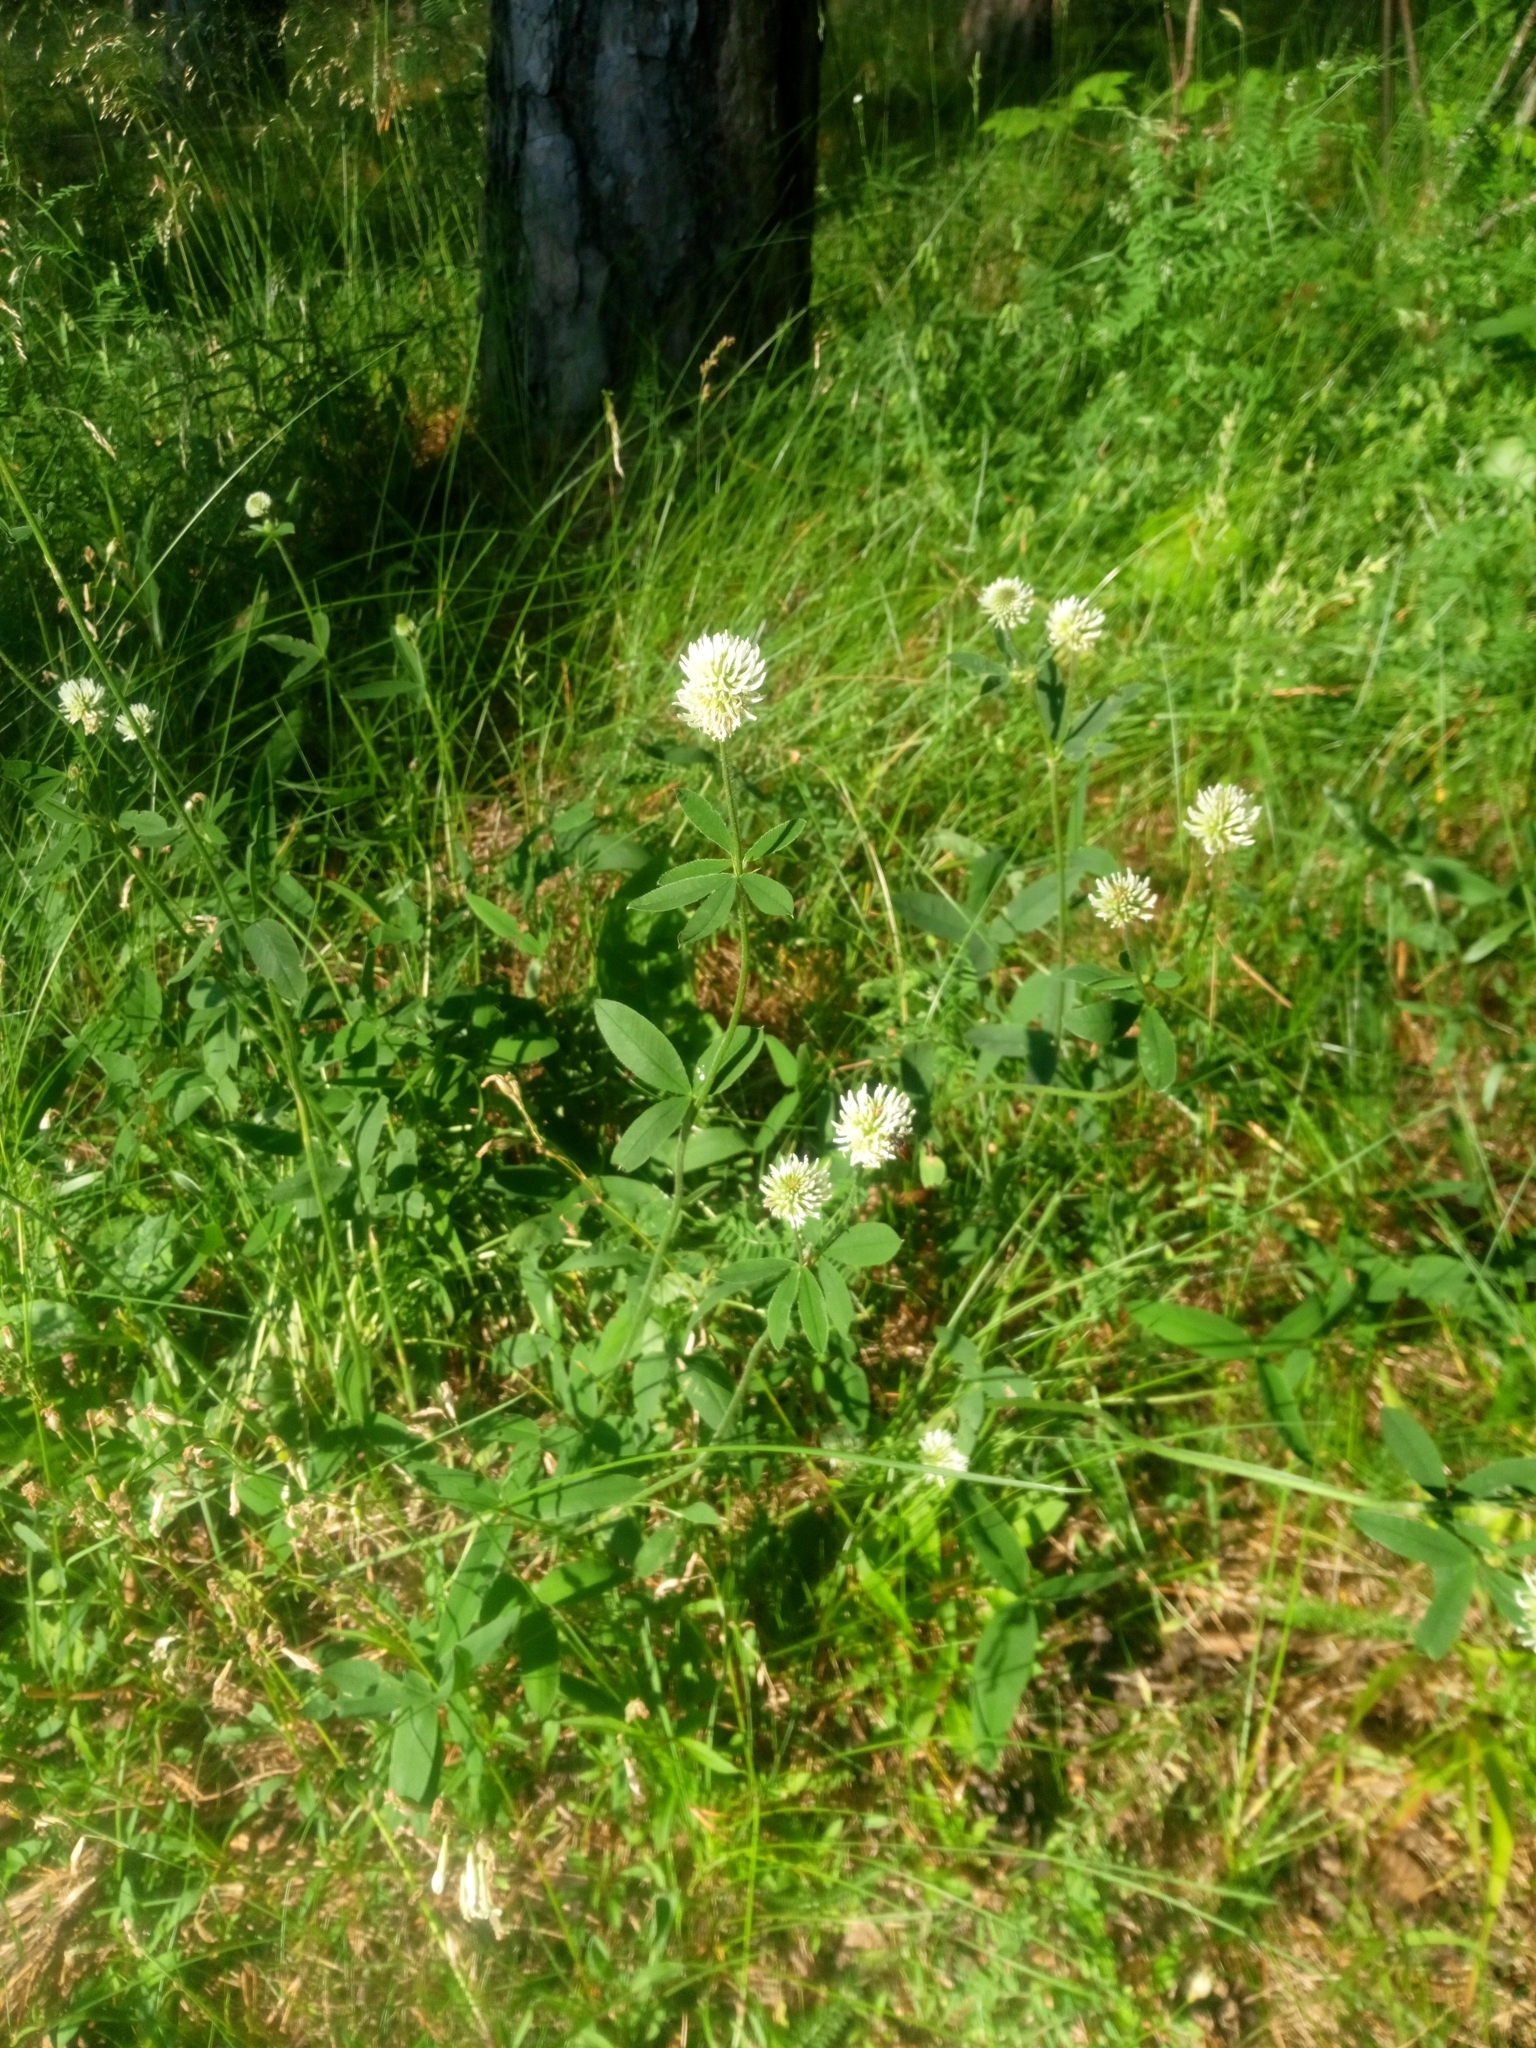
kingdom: Plantae
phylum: Tracheophyta
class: Magnoliopsida
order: Fabales
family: Fabaceae
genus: Trifolium
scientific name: Trifolium montanum
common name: Mountain clover
